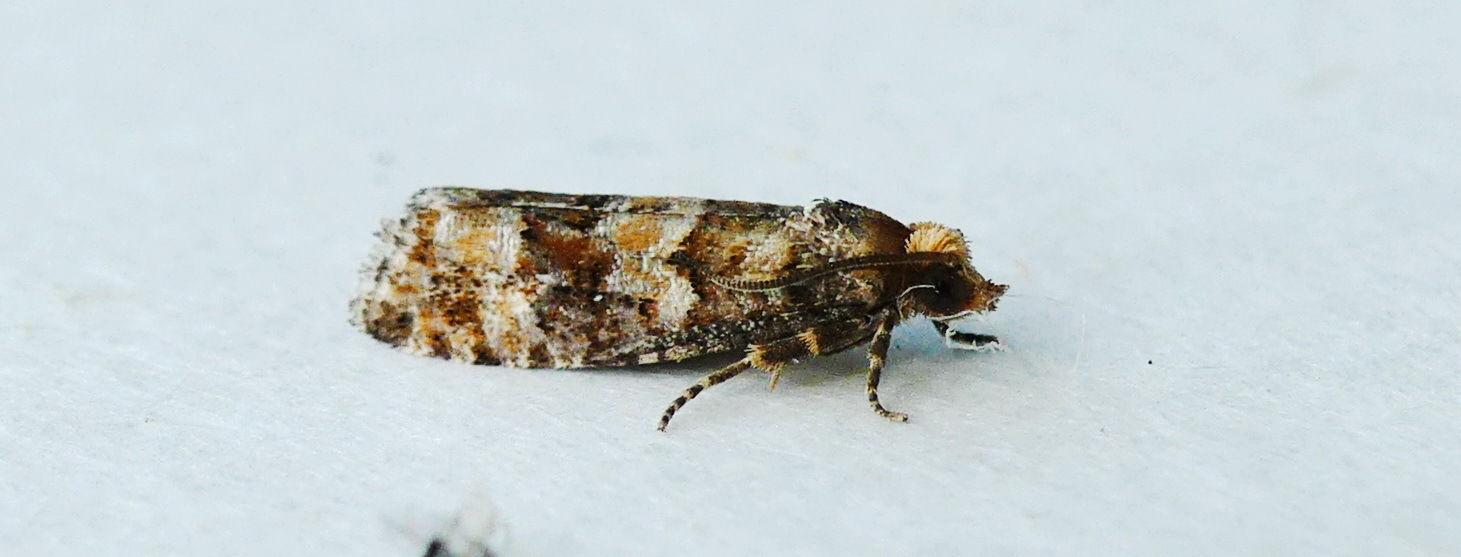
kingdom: Animalia
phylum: Arthropoda
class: Insecta
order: Lepidoptera
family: Tortricidae
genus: Eucopina
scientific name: Eucopina tocullionana
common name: White pinecone borer moth
